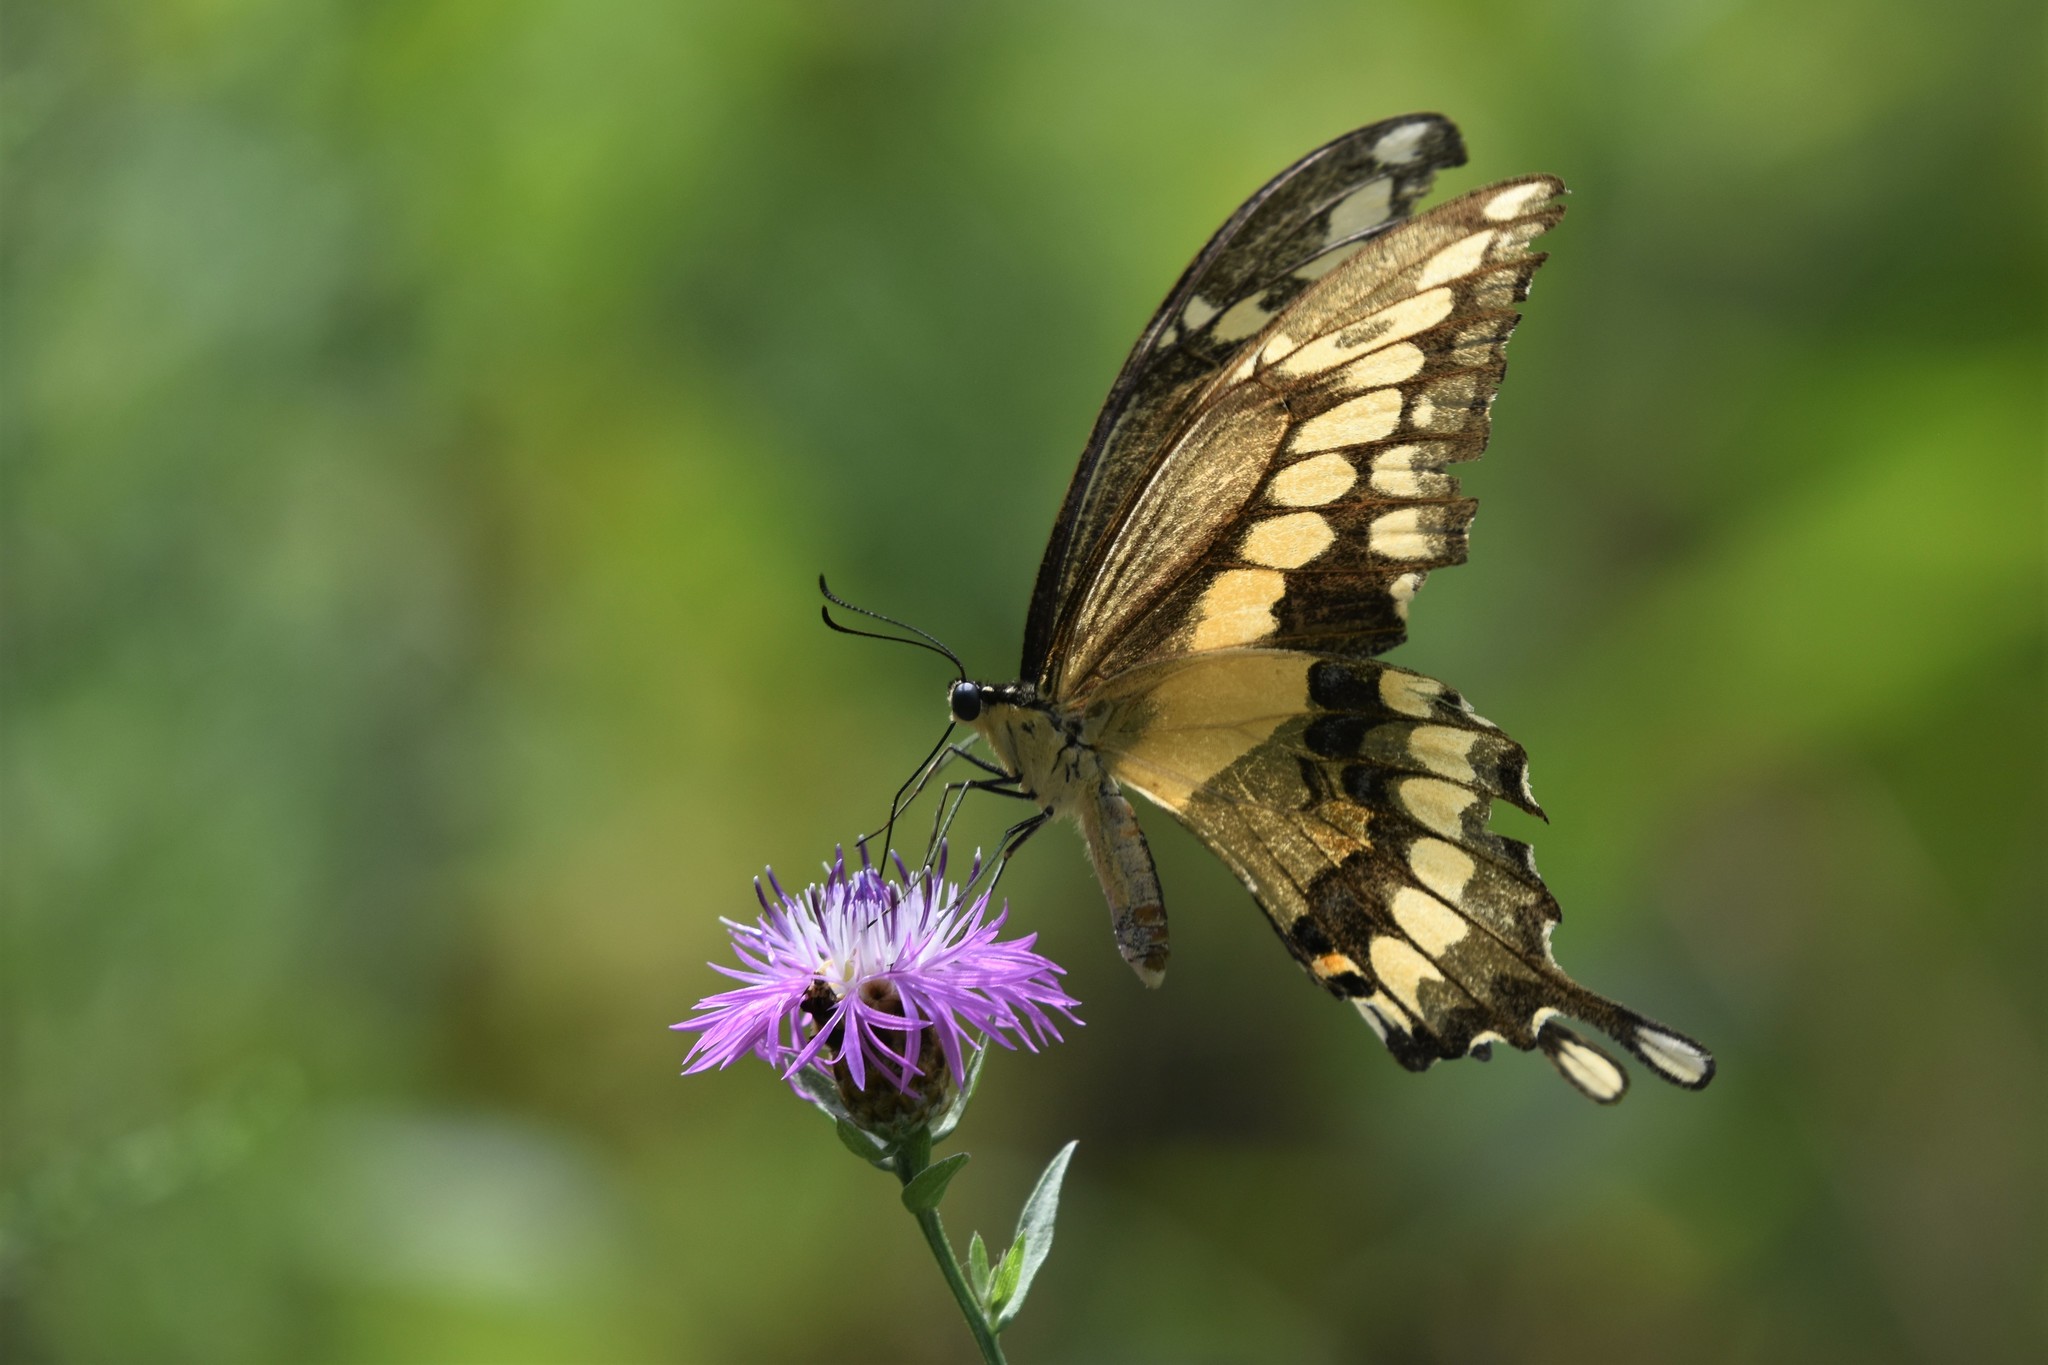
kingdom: Animalia
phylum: Arthropoda
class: Insecta
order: Lepidoptera
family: Papilionidae
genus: Papilio
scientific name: Papilio cresphontes
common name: Giant swallowtail
